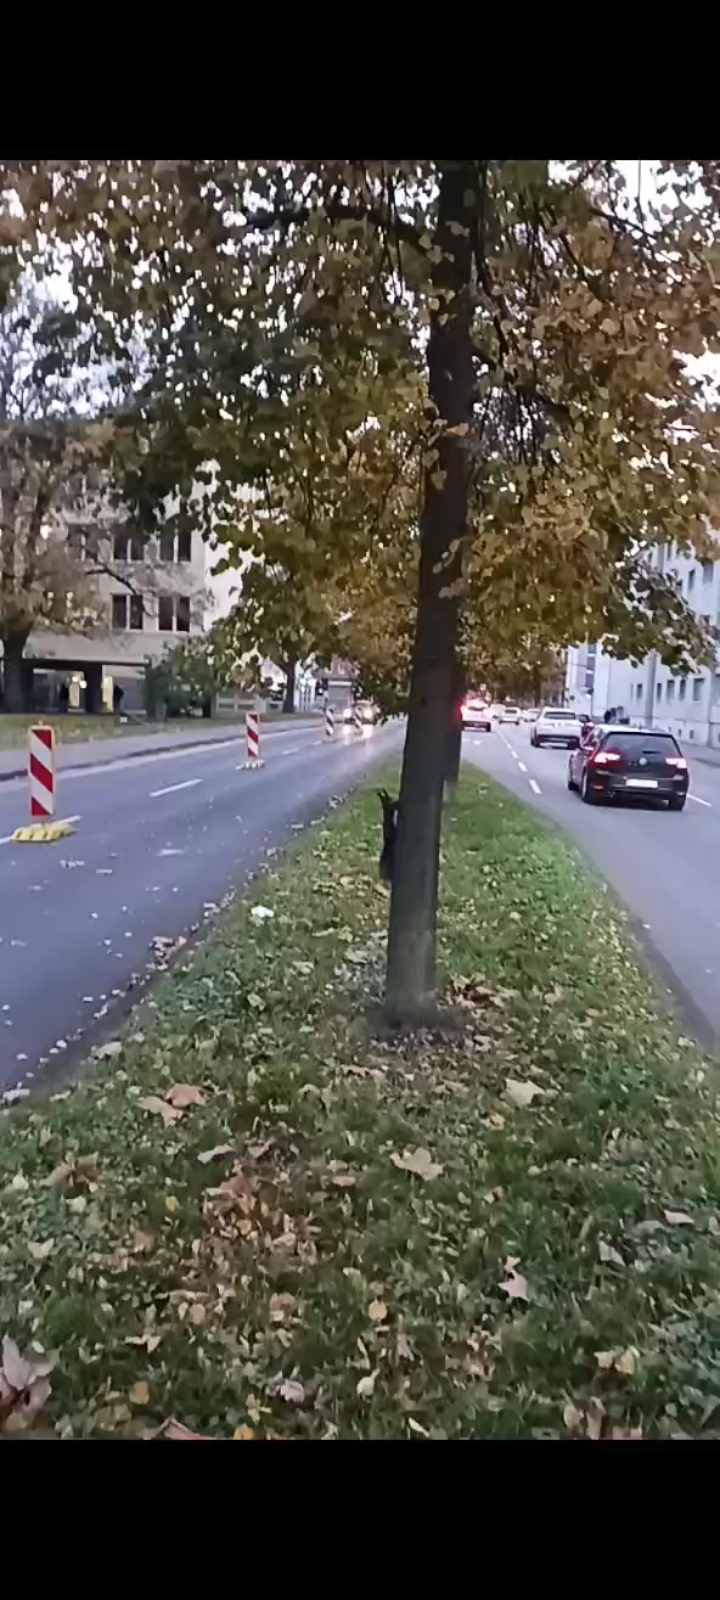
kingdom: Animalia
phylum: Chordata
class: Mammalia
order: Rodentia
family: Sciuridae
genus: Sciurus
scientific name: Sciurus vulgaris
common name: Eurasian red squirrel
